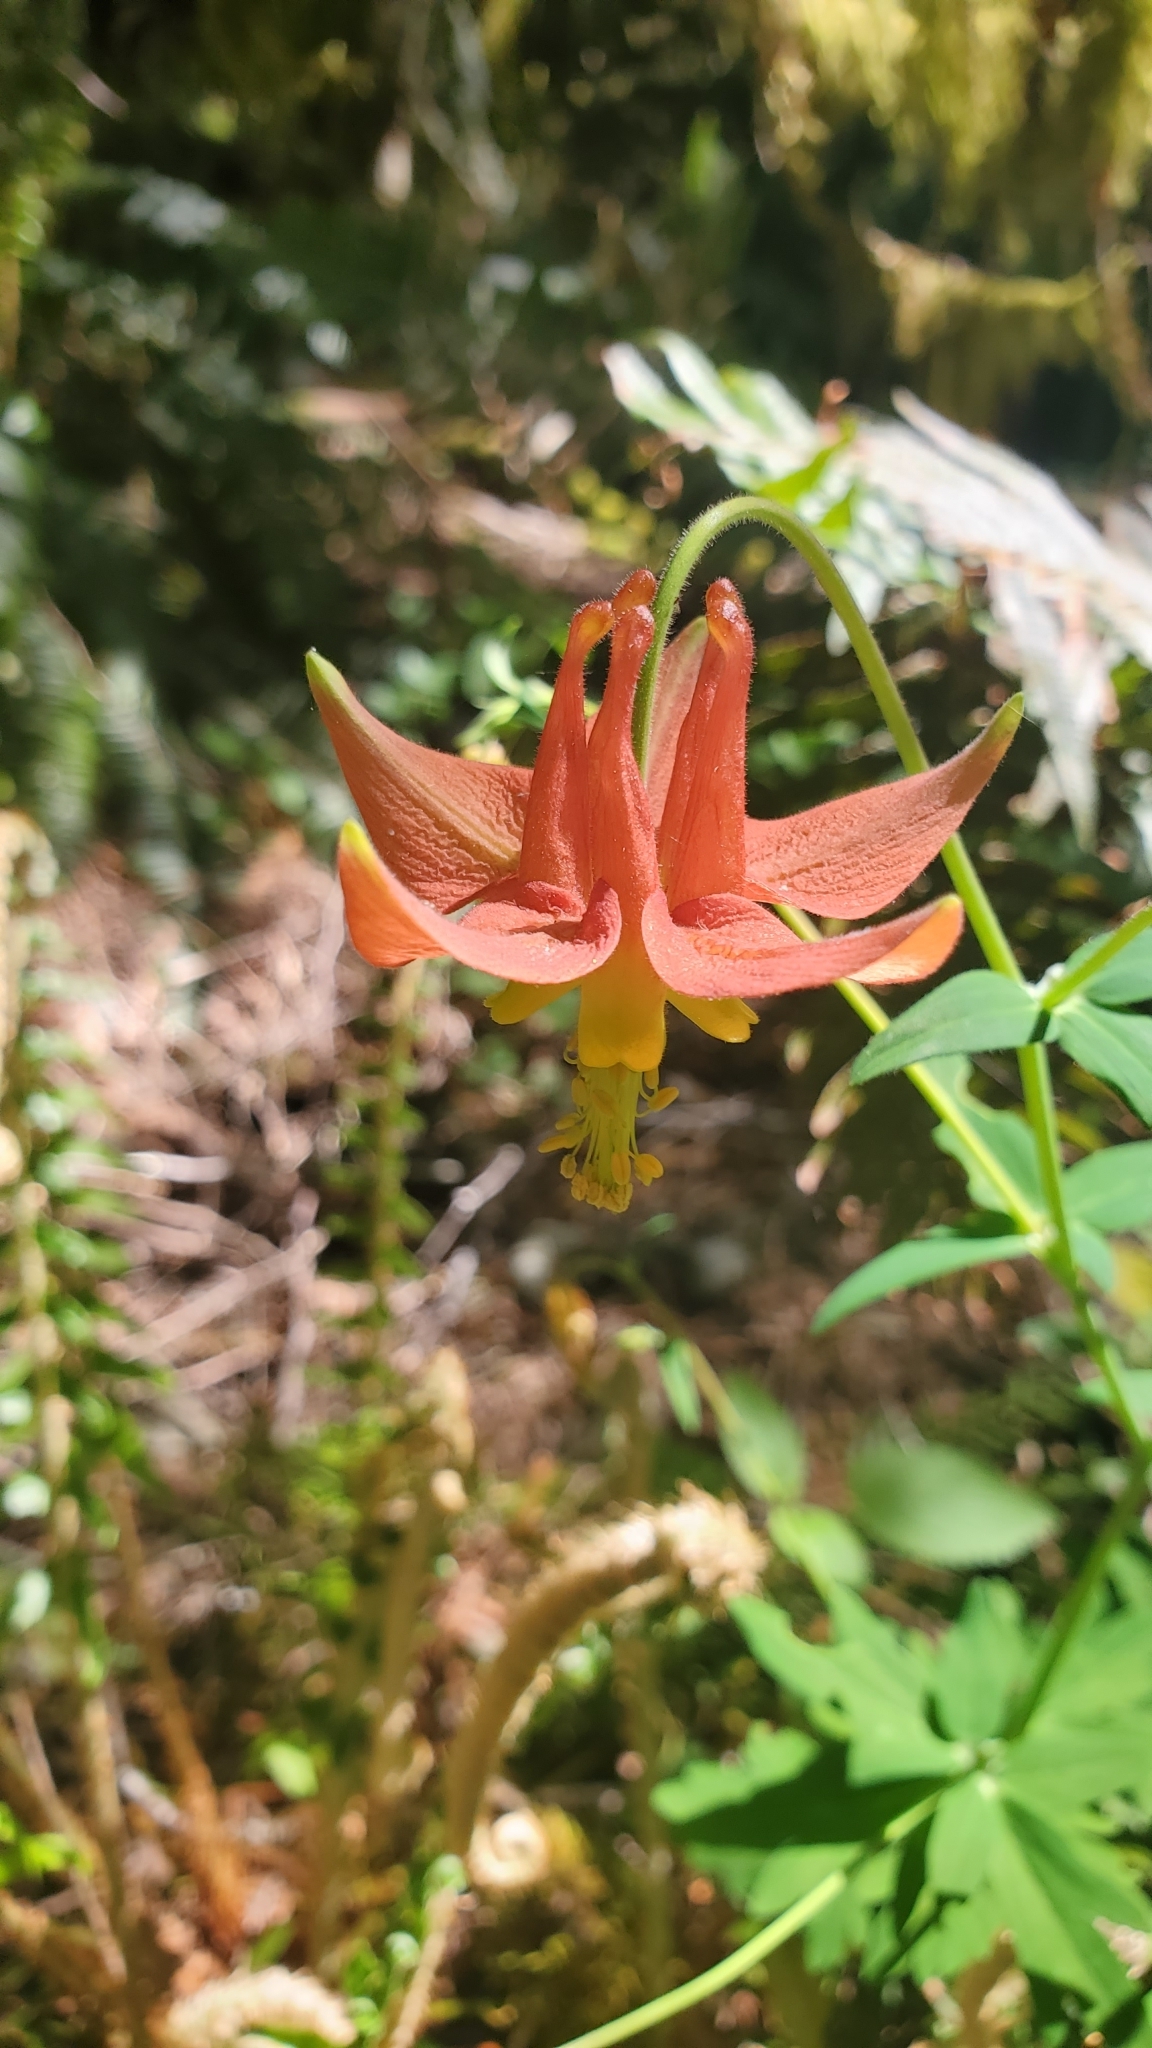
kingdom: Plantae
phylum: Tracheophyta
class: Magnoliopsida
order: Ranunculales
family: Ranunculaceae
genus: Aquilegia
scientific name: Aquilegia formosa
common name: Sitka columbine
